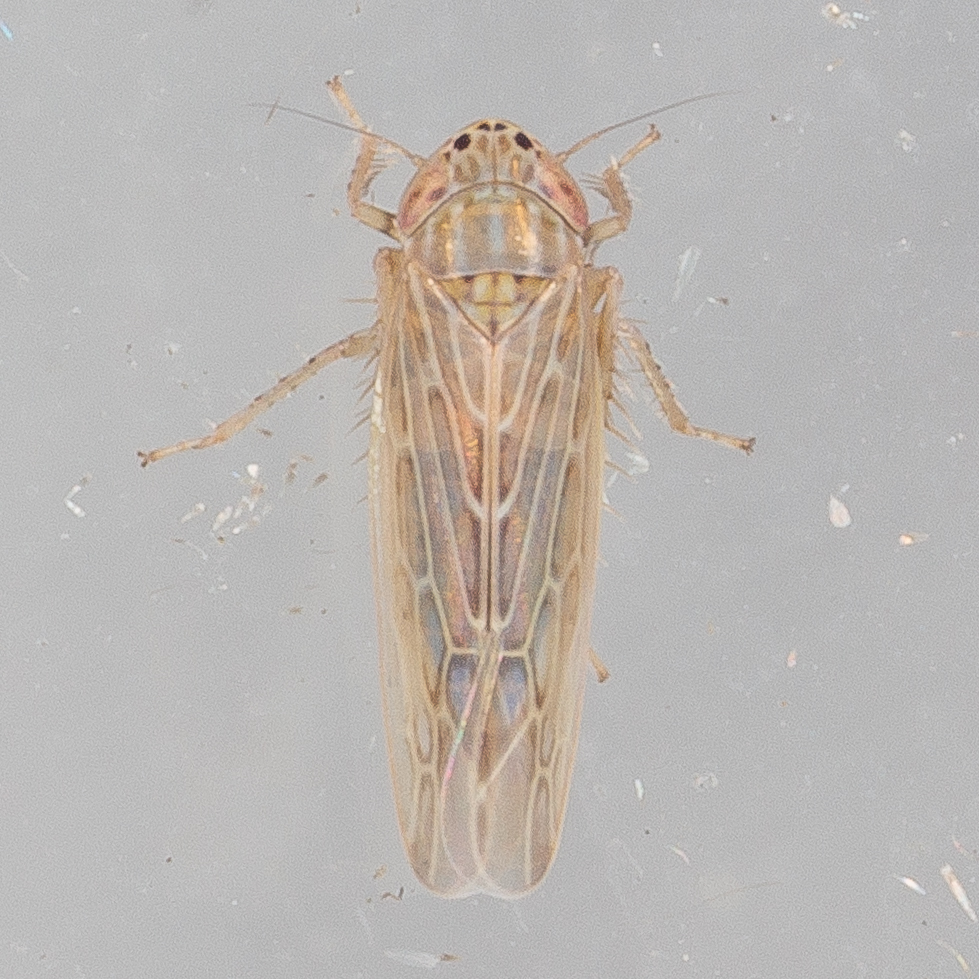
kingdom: Animalia
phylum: Arthropoda
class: Insecta
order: Hemiptera
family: Cicadellidae
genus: Graminella
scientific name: Graminella sonora
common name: Lesser lawn leafhopper
